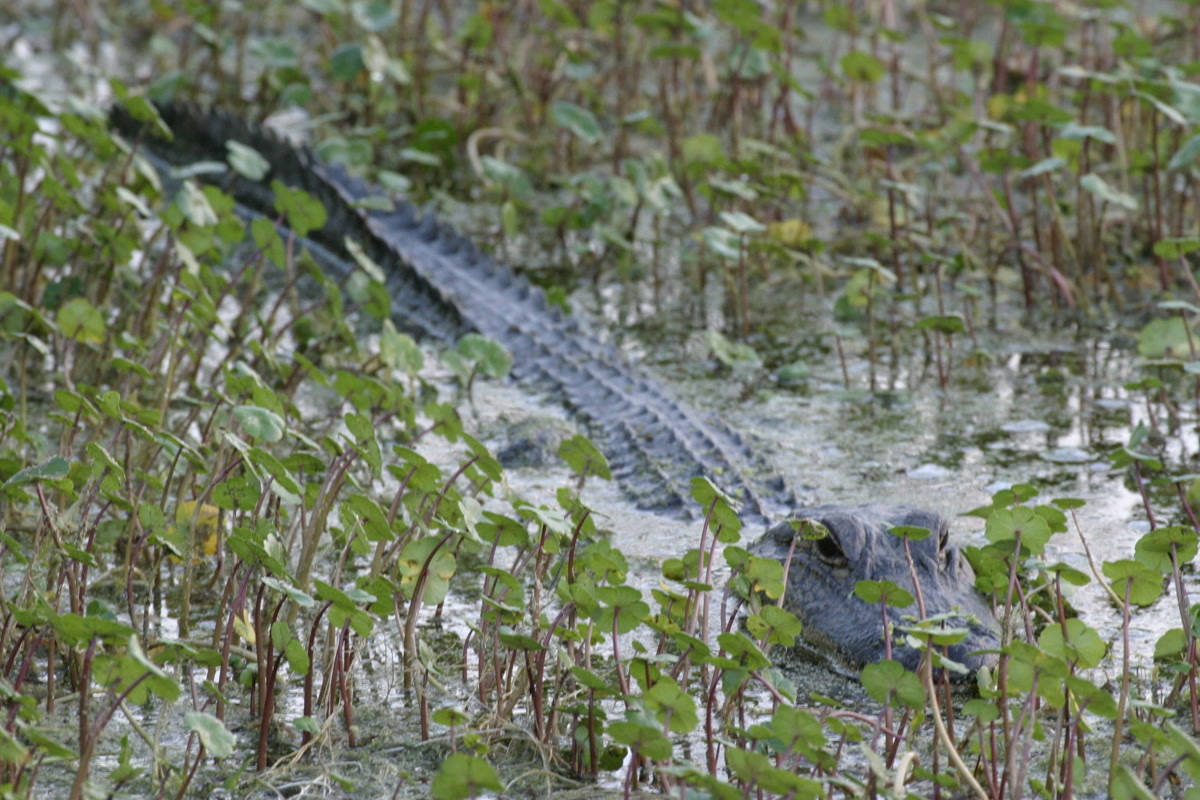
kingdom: Animalia
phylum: Chordata
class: Crocodylia
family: Alligatoridae
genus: Alligator
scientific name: Alligator mississippiensis
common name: American alligator
